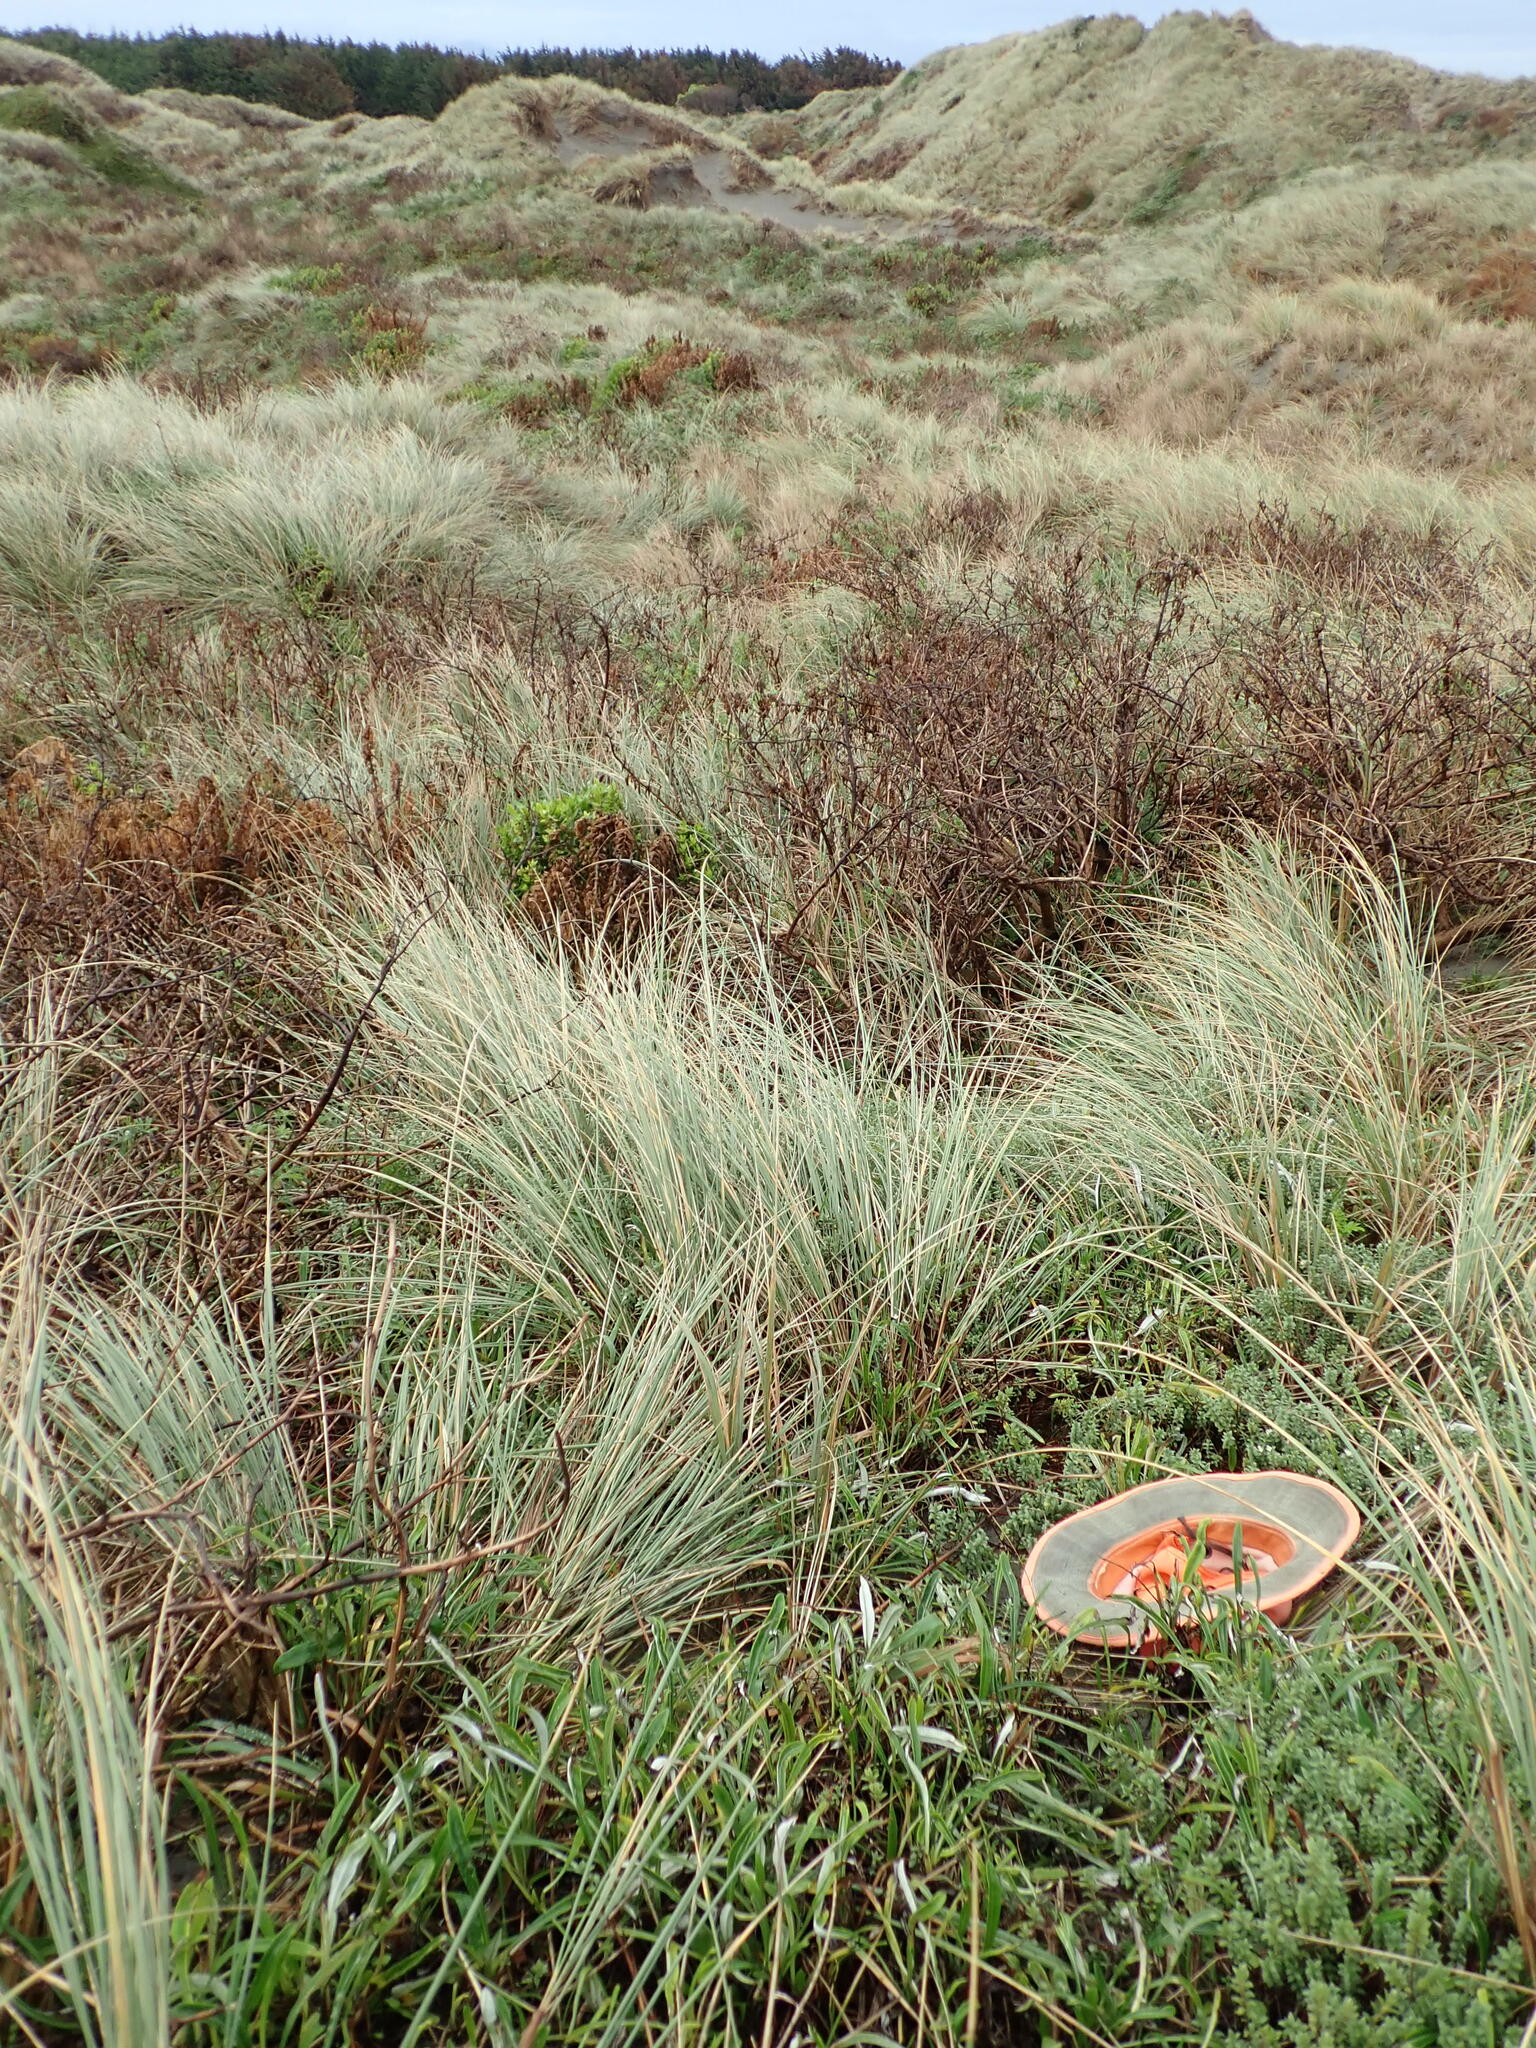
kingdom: Plantae
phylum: Tracheophyta
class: Magnoliopsida
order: Malvales
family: Thymelaeaceae
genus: Pimelea
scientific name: Pimelea villosa
